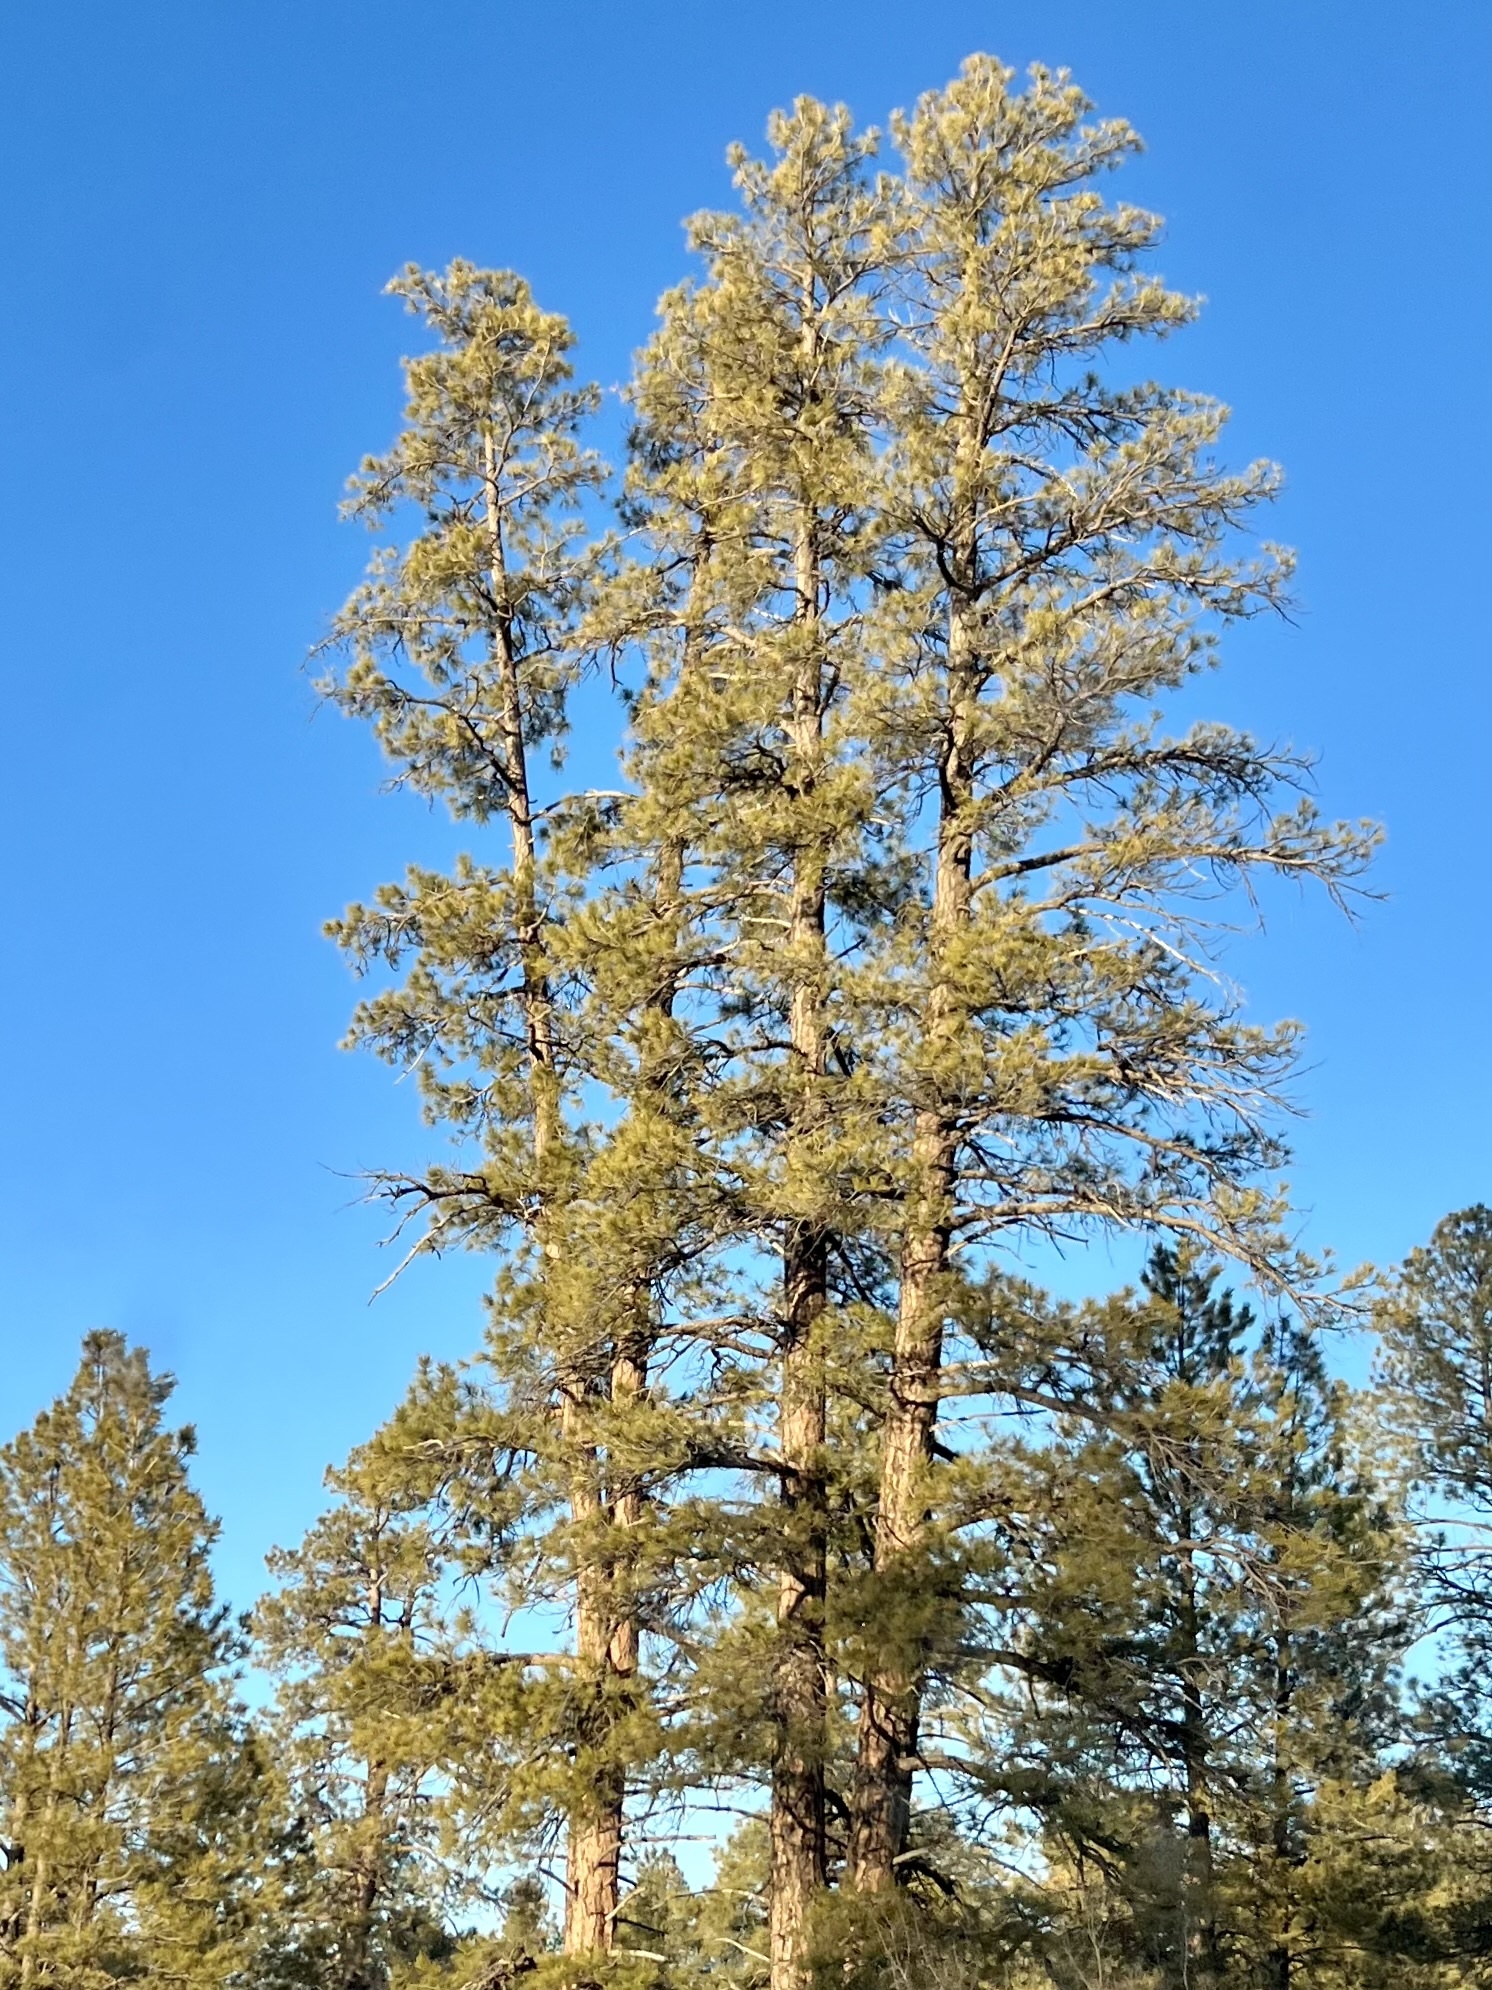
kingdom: Plantae
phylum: Tracheophyta
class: Pinopsida
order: Pinales
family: Pinaceae
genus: Pinus
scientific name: Pinus ponderosa
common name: Western yellow-pine
